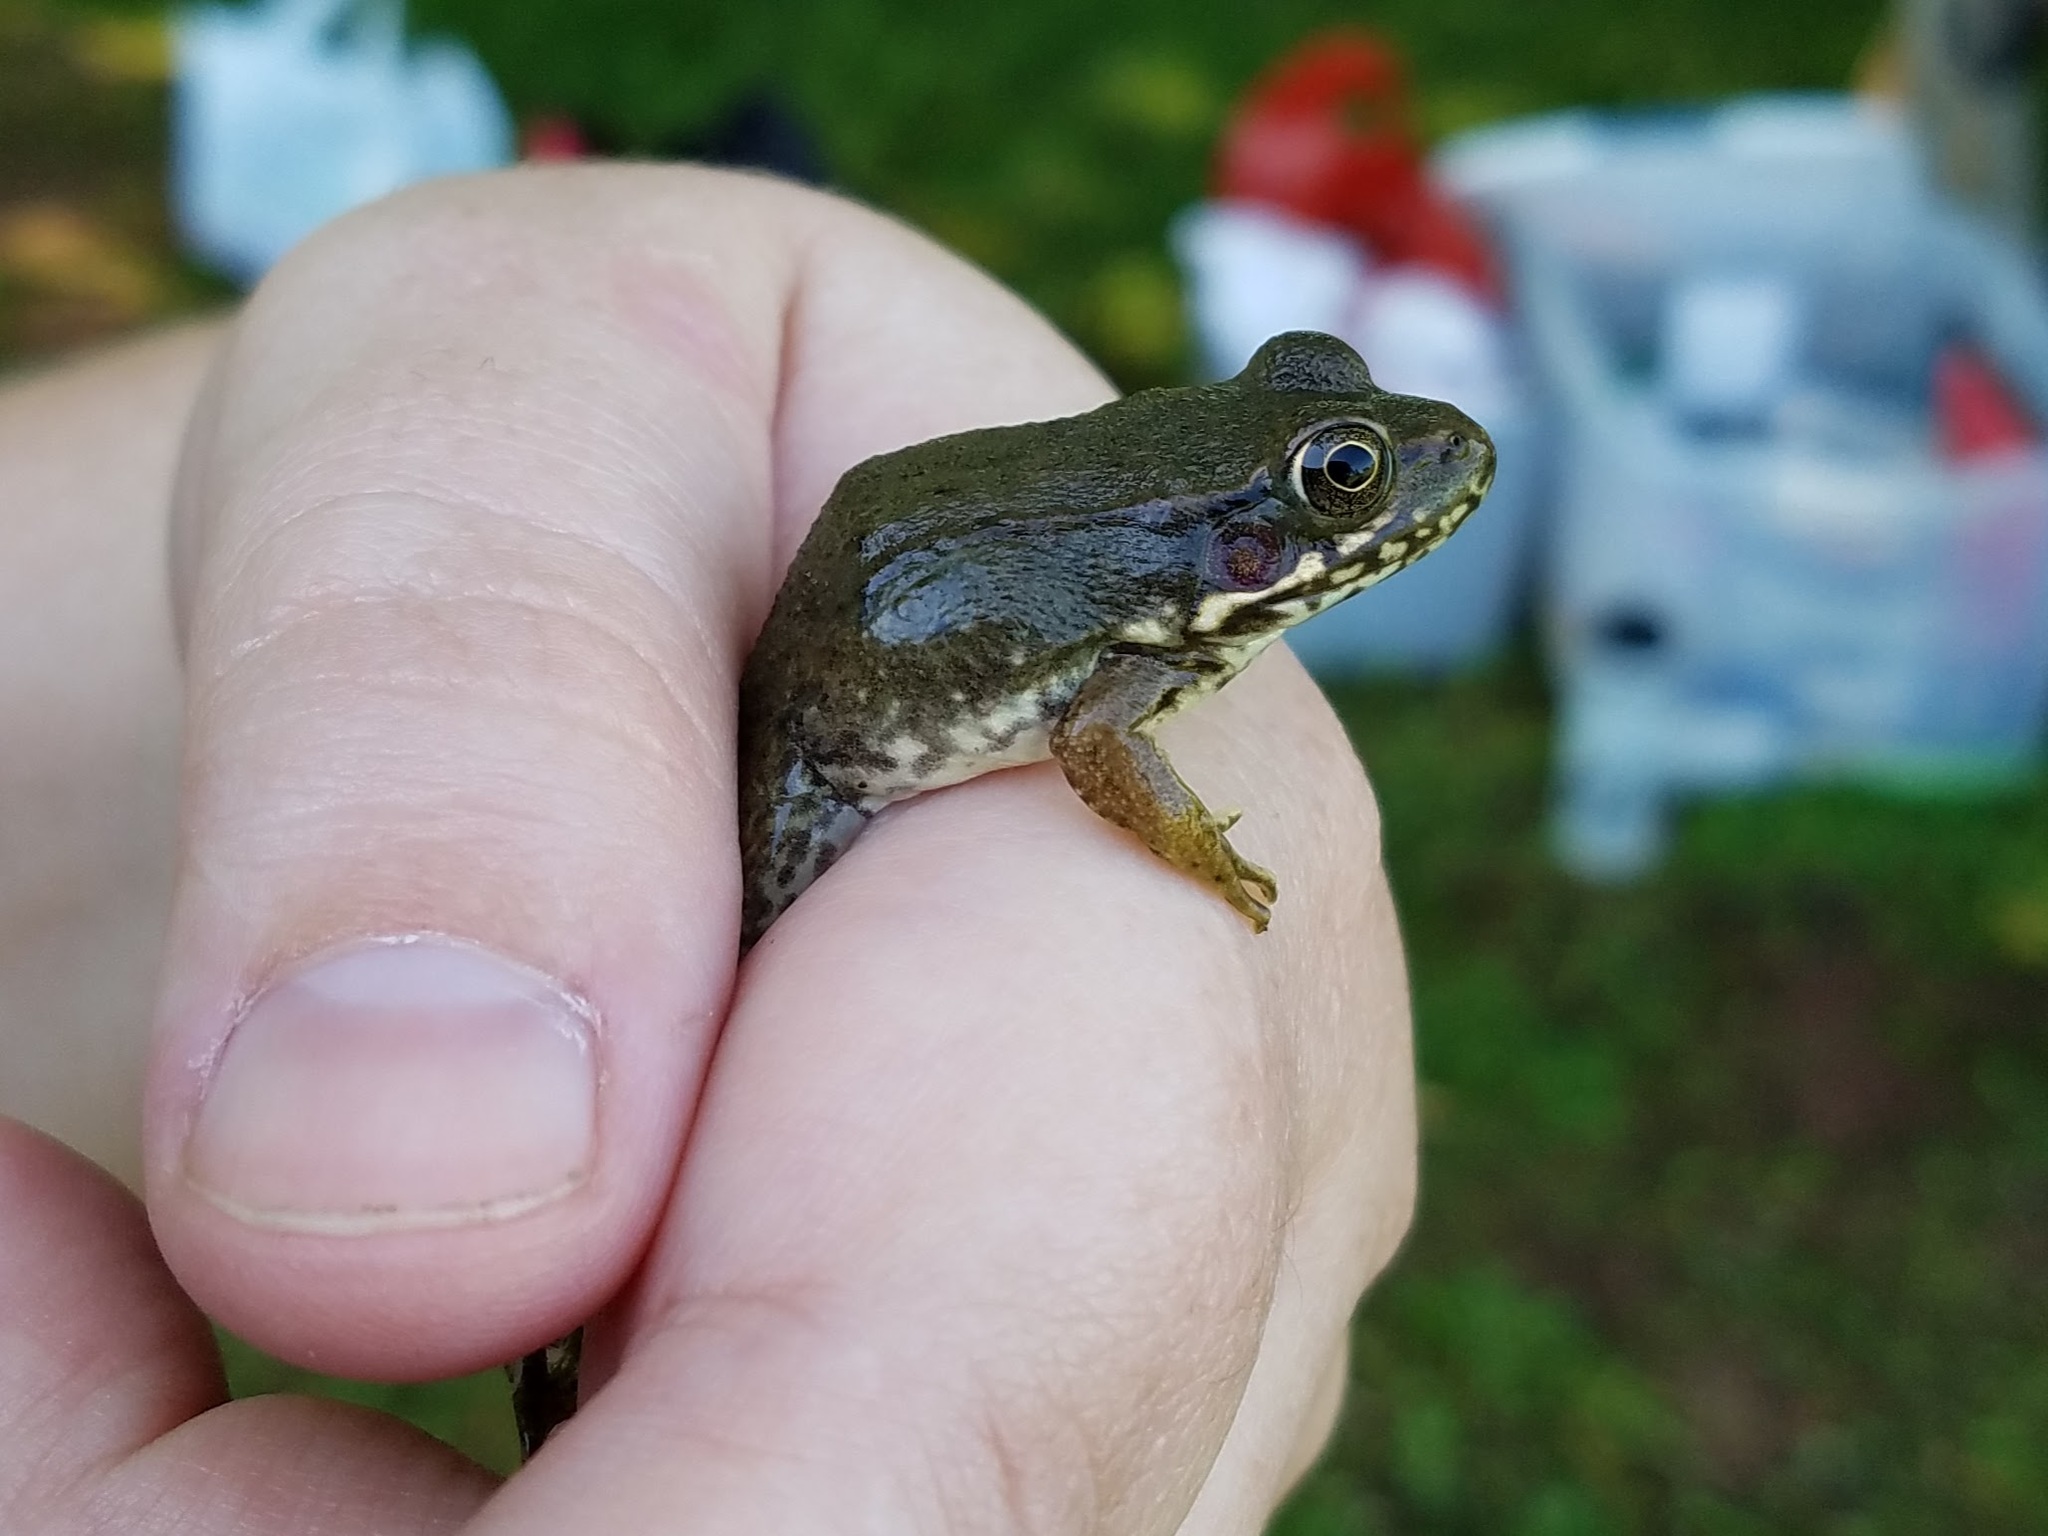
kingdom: Animalia
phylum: Chordata
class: Amphibia
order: Anura
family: Ranidae
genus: Lithobates
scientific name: Lithobates clamitans
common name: Green frog
